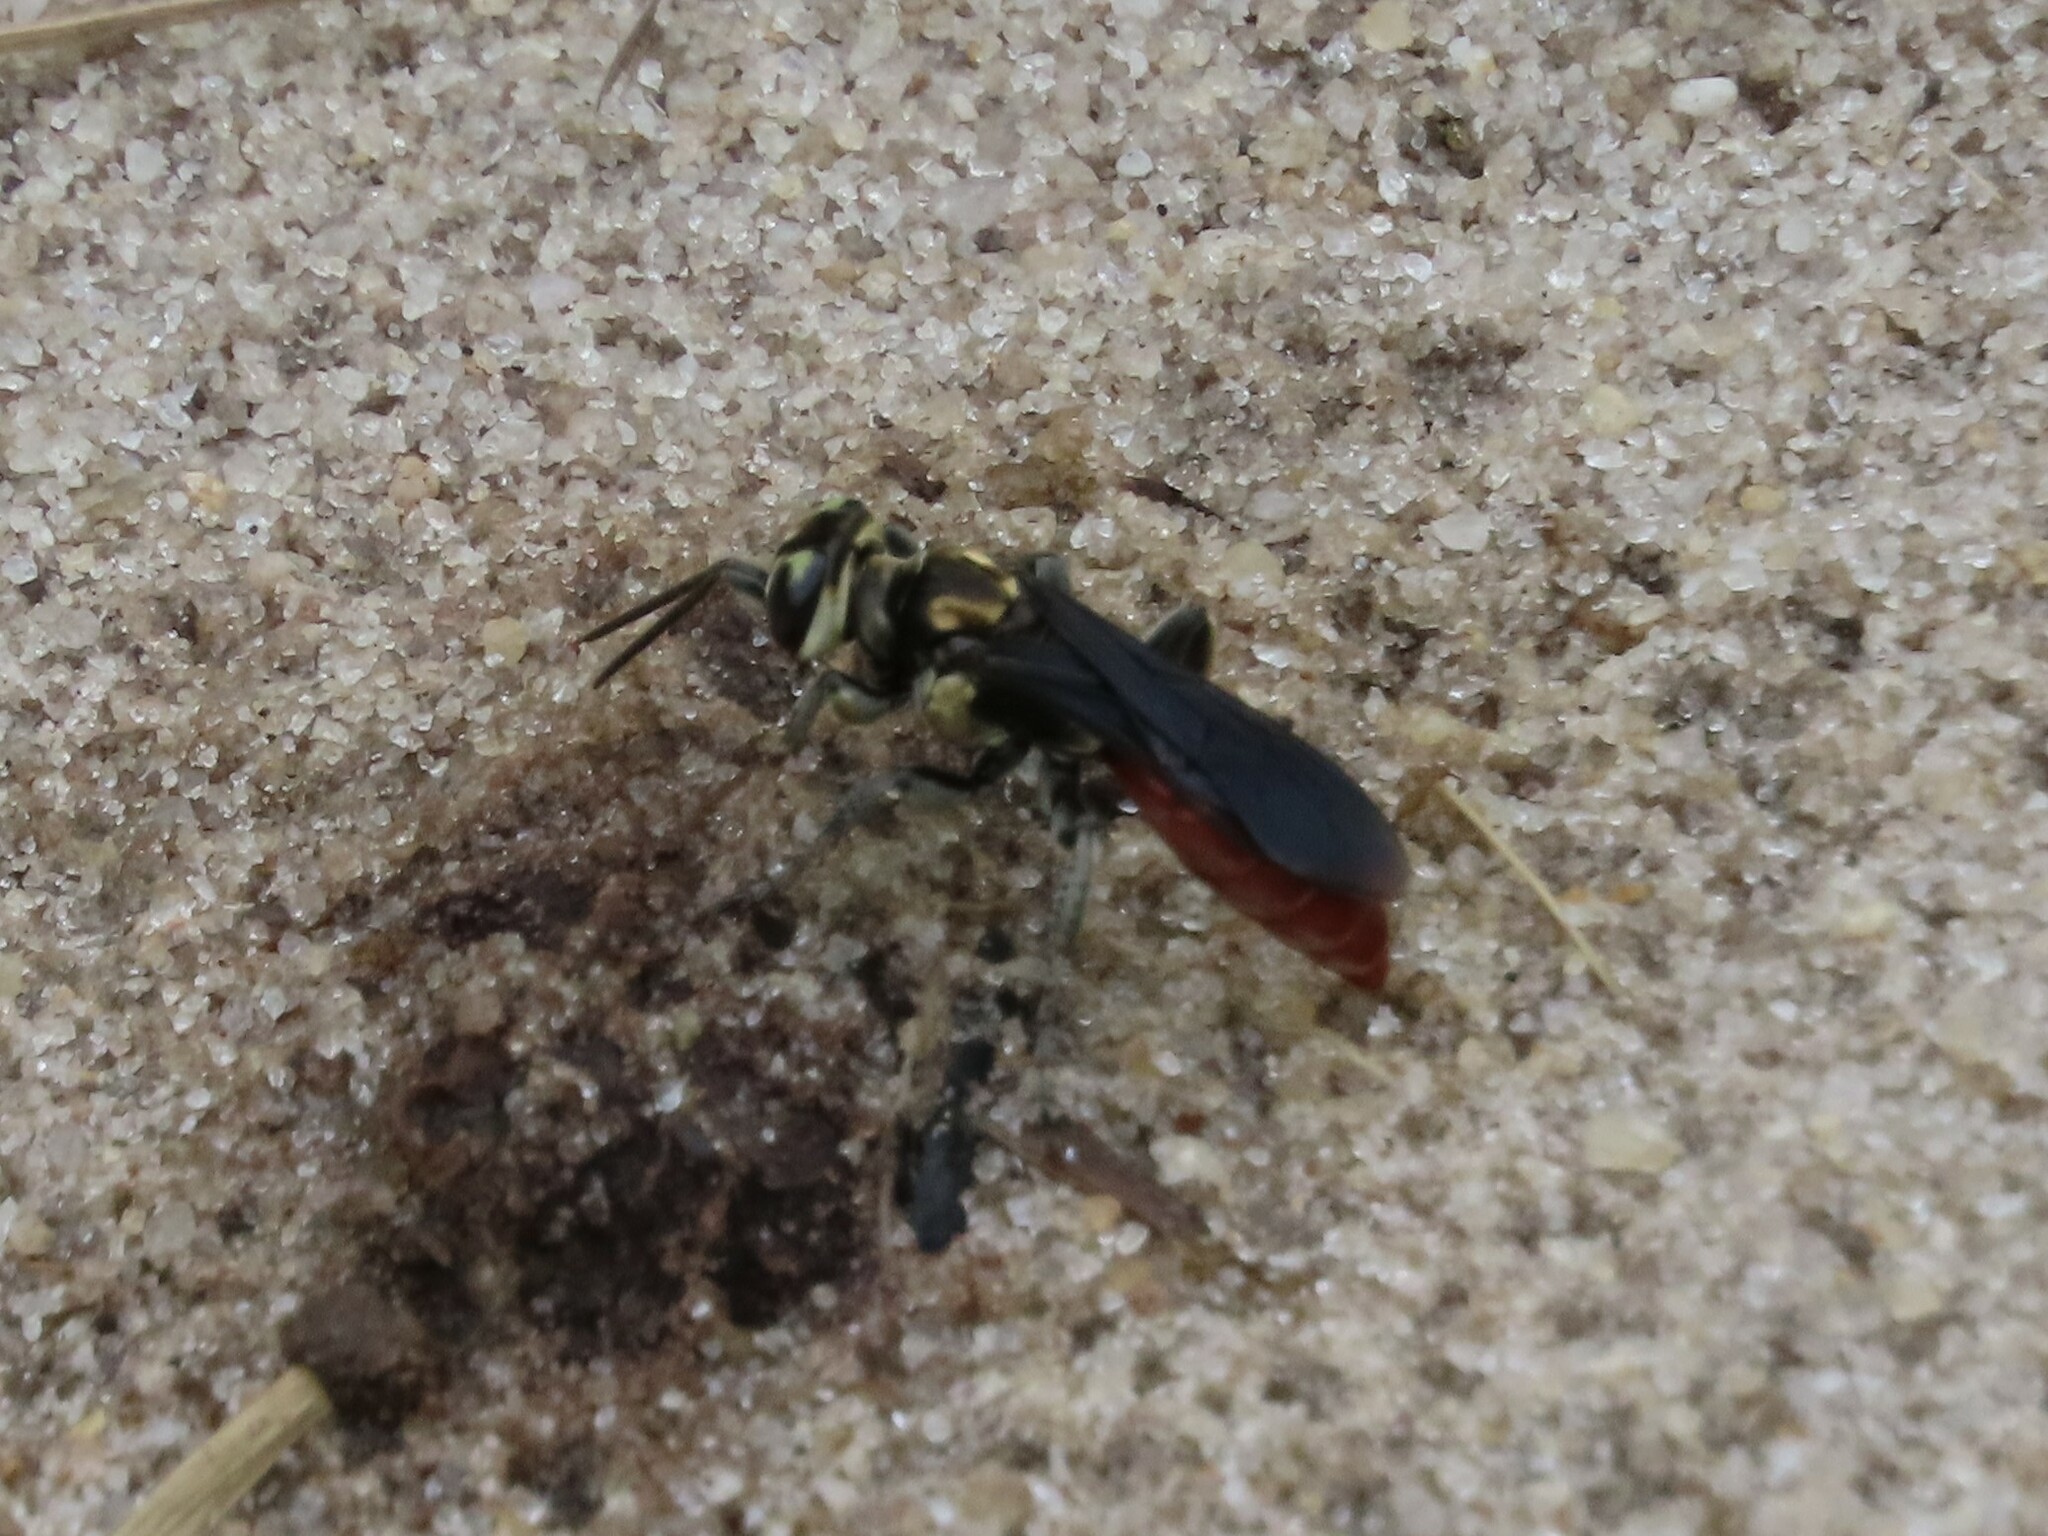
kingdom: Animalia
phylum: Arthropoda
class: Insecta
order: Hymenoptera
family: Crabronidae
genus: Larra
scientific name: Larra bicolor
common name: Wasp
